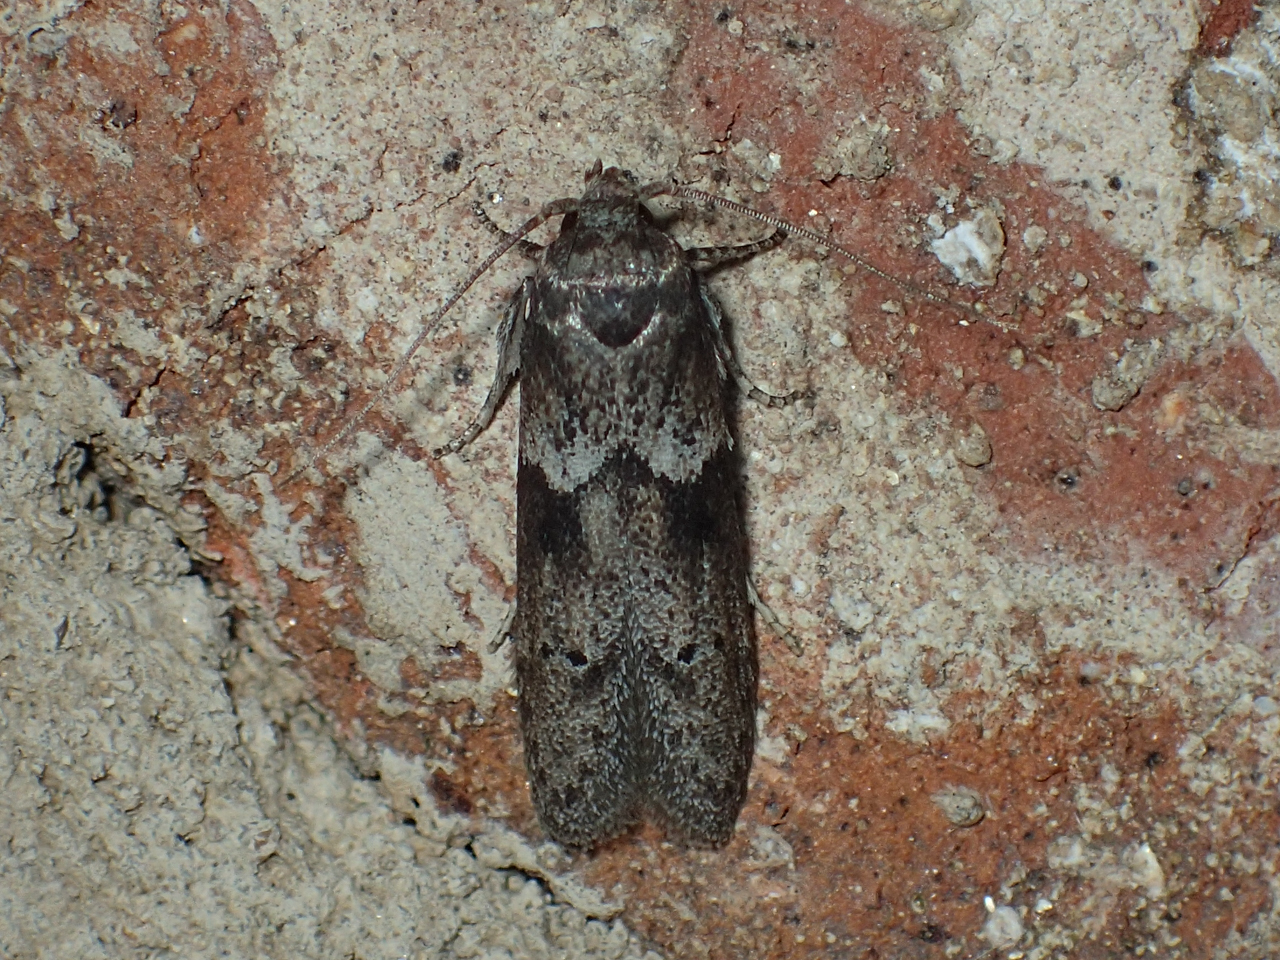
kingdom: Animalia
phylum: Arthropoda
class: Insecta
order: Lepidoptera
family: Blastobasidae
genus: Blastobasis
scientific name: Blastobasis glandulella
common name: Acorn moth
